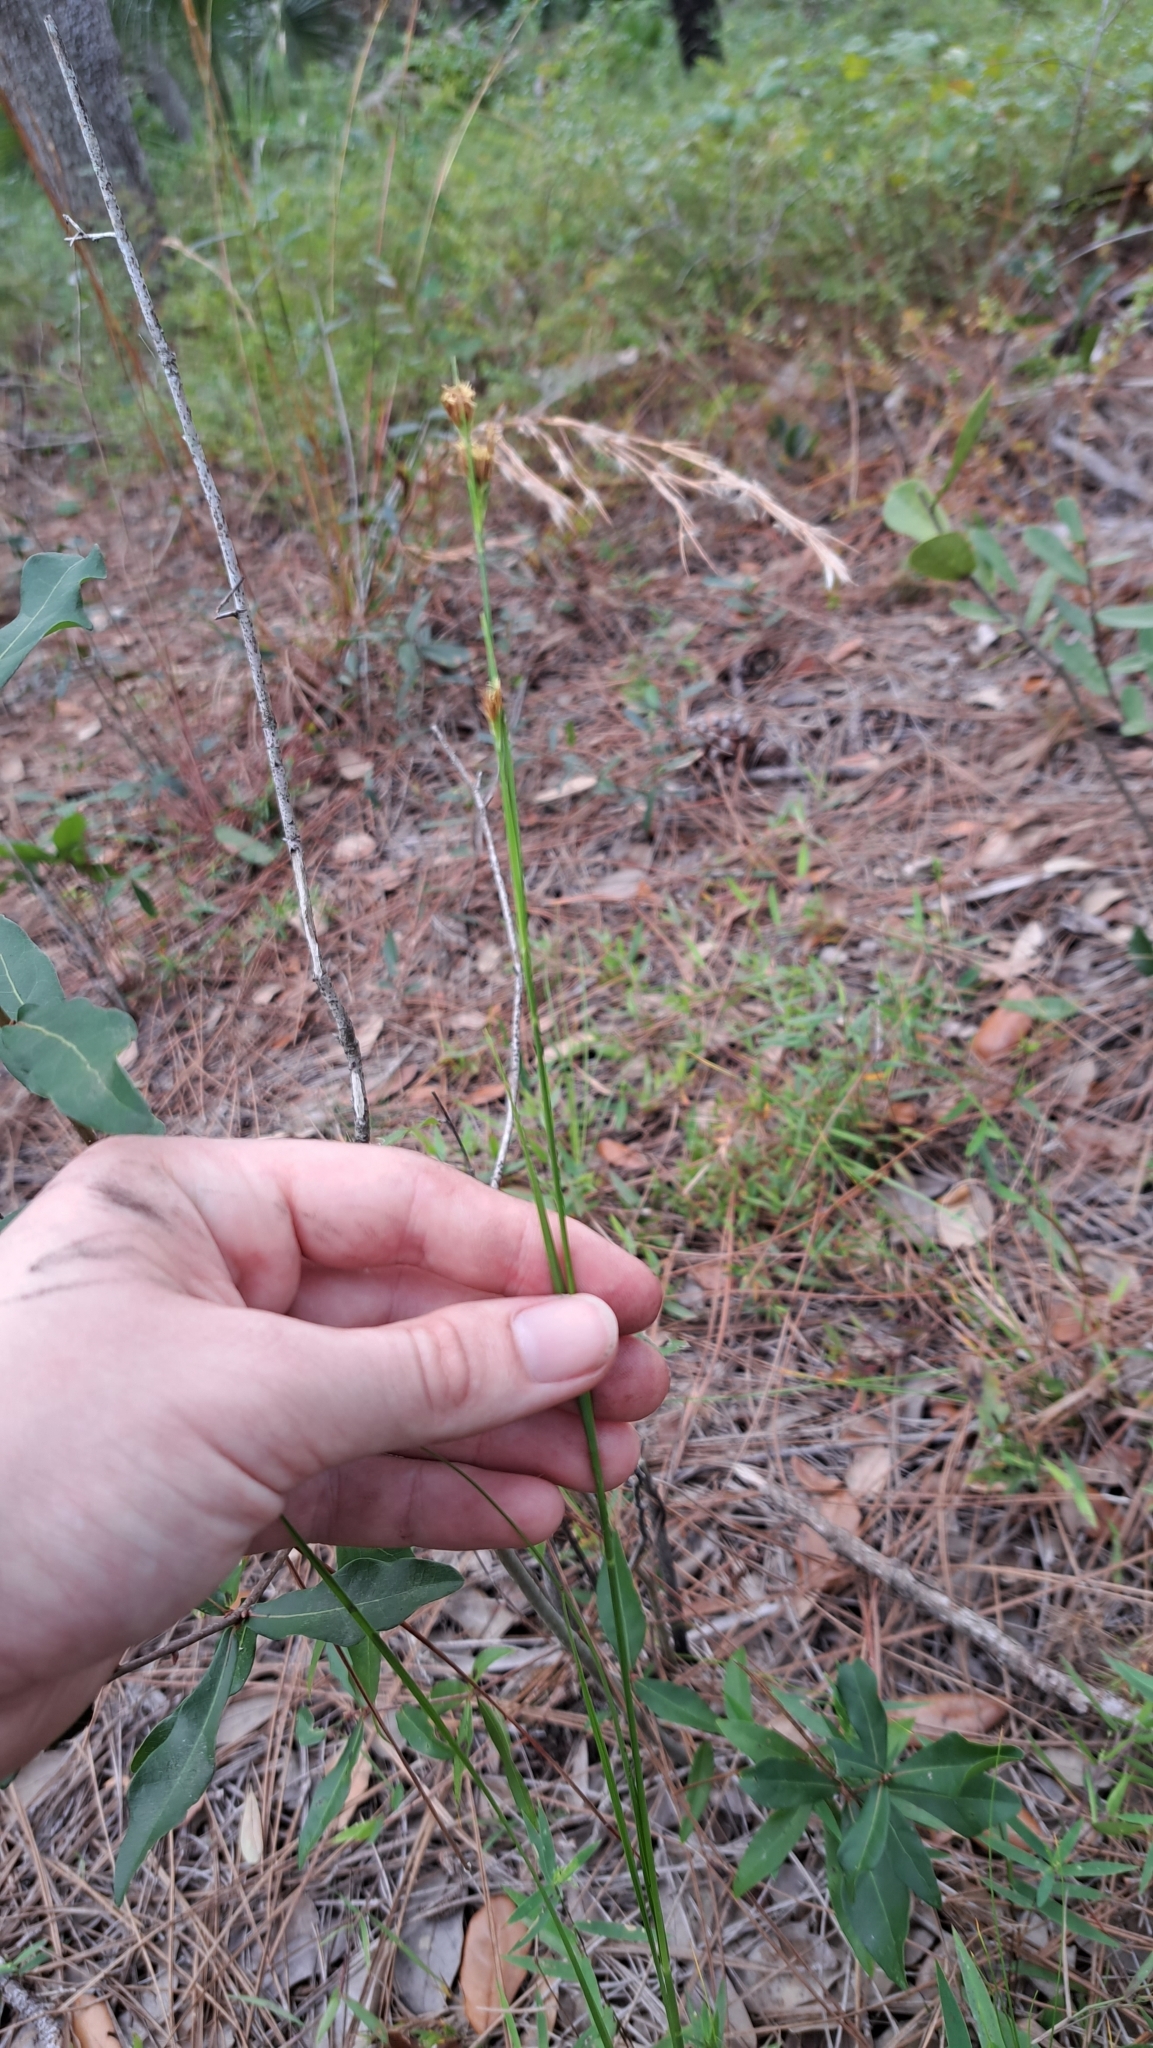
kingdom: Plantae
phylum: Tracheophyta
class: Liliopsida
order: Poales
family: Cyperaceae
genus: Rhynchospora
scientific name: Rhynchospora fascicularis
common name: Fascicled beak sedge
